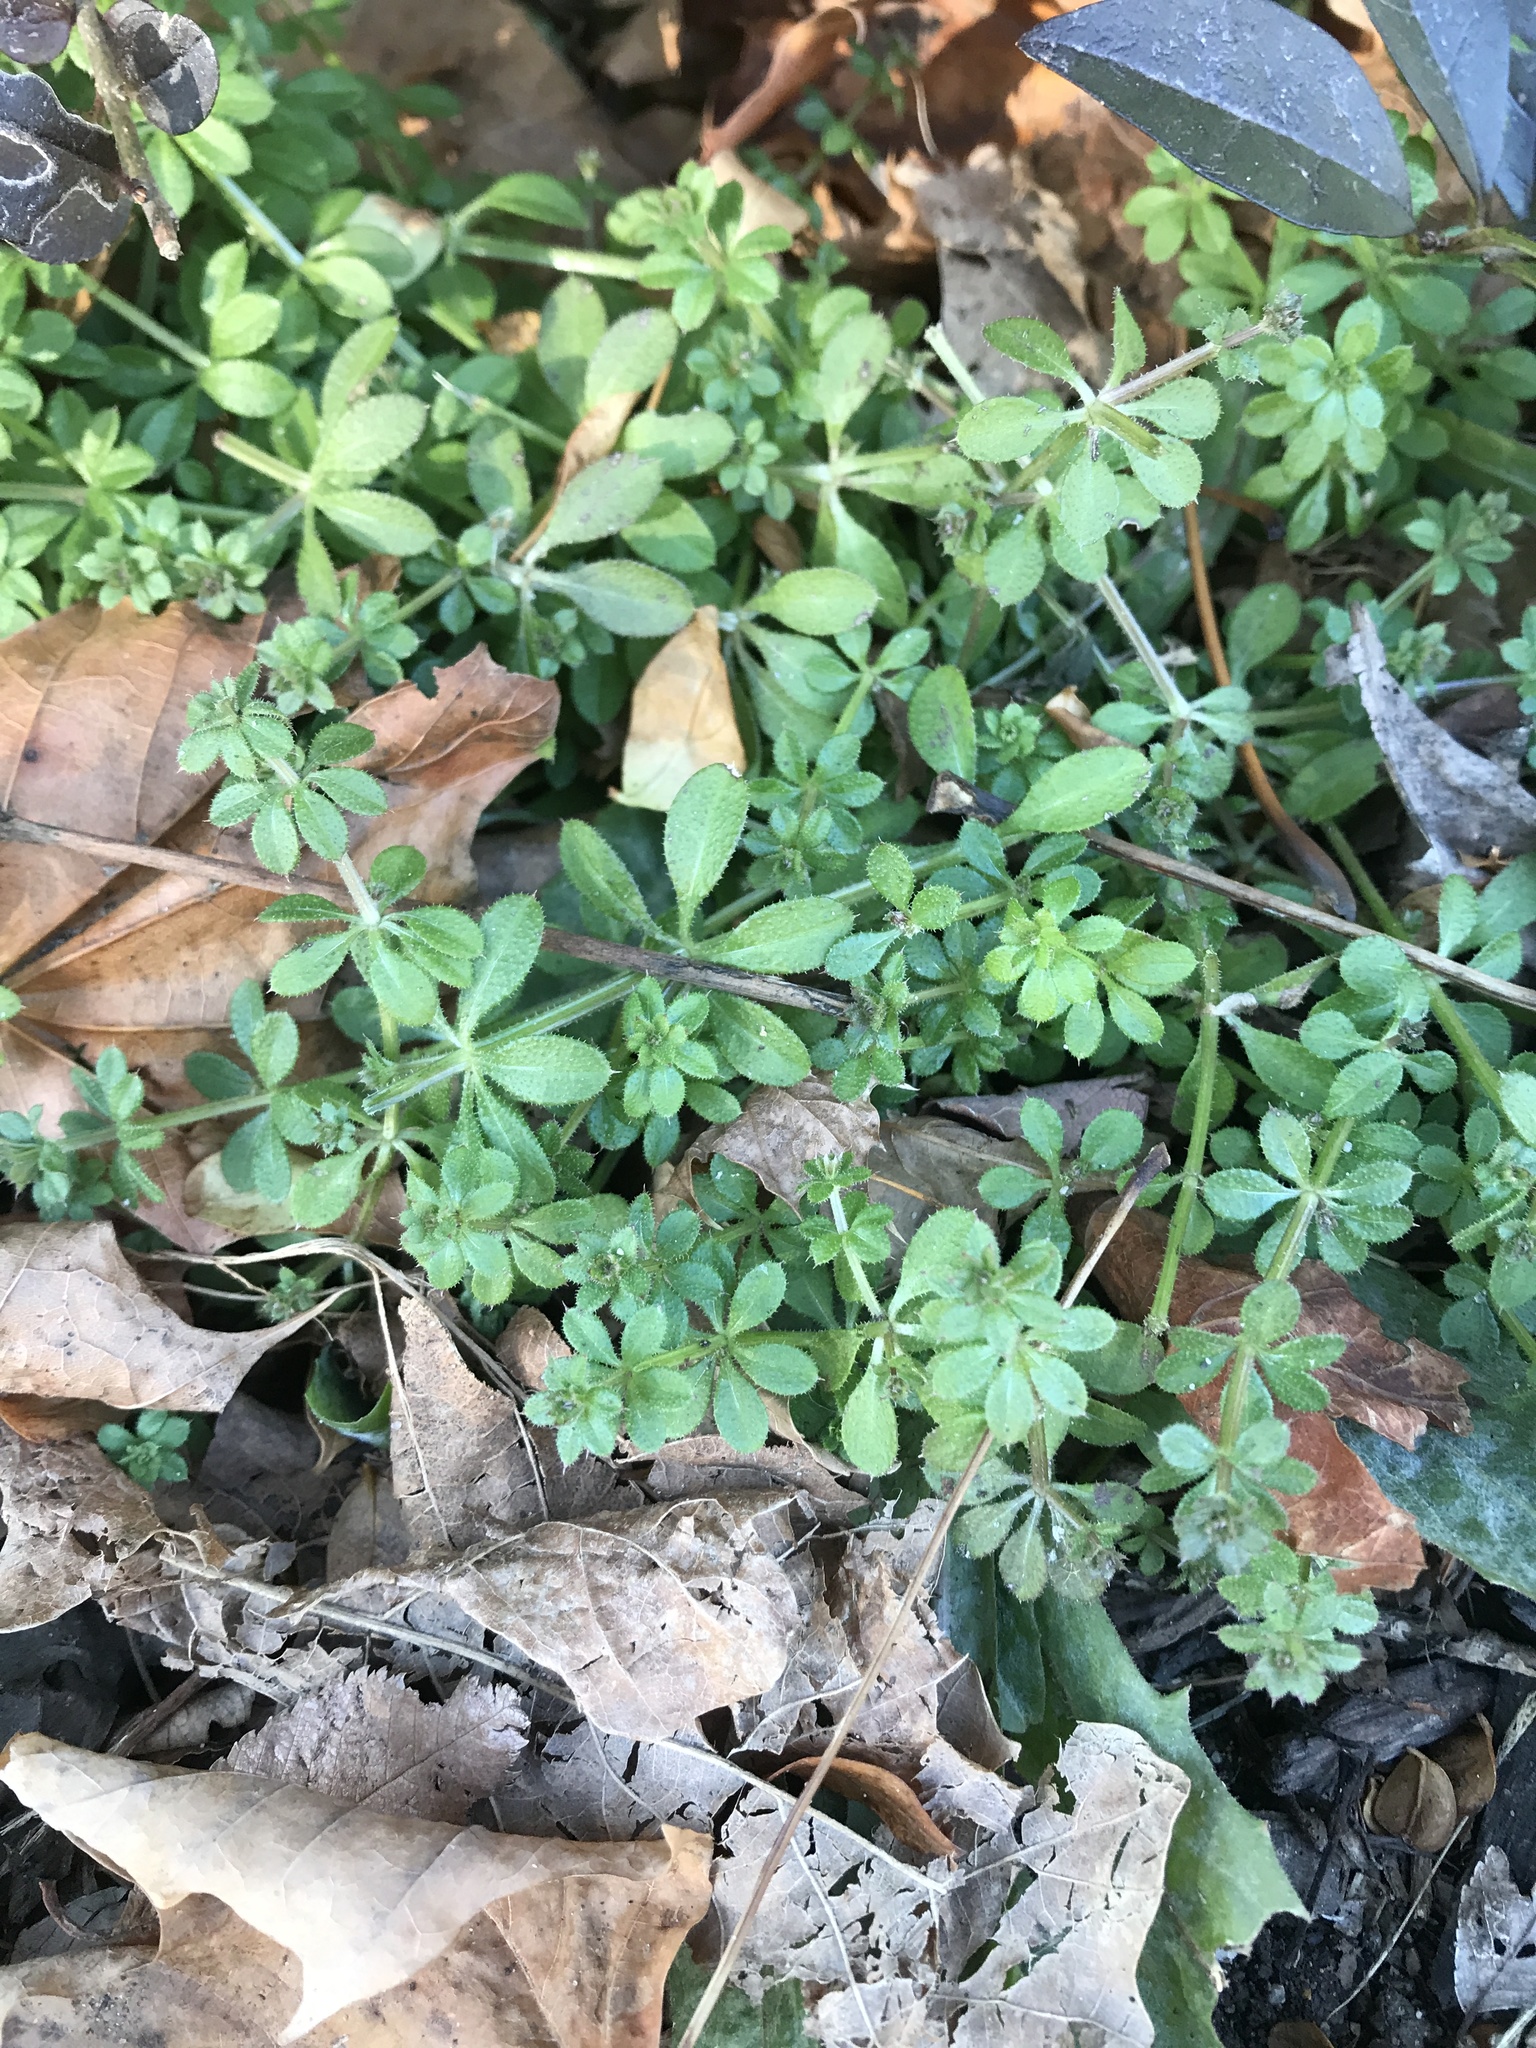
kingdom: Plantae
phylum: Tracheophyta
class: Magnoliopsida
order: Gentianales
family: Rubiaceae
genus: Galium
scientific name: Galium aparine
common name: Cleavers
